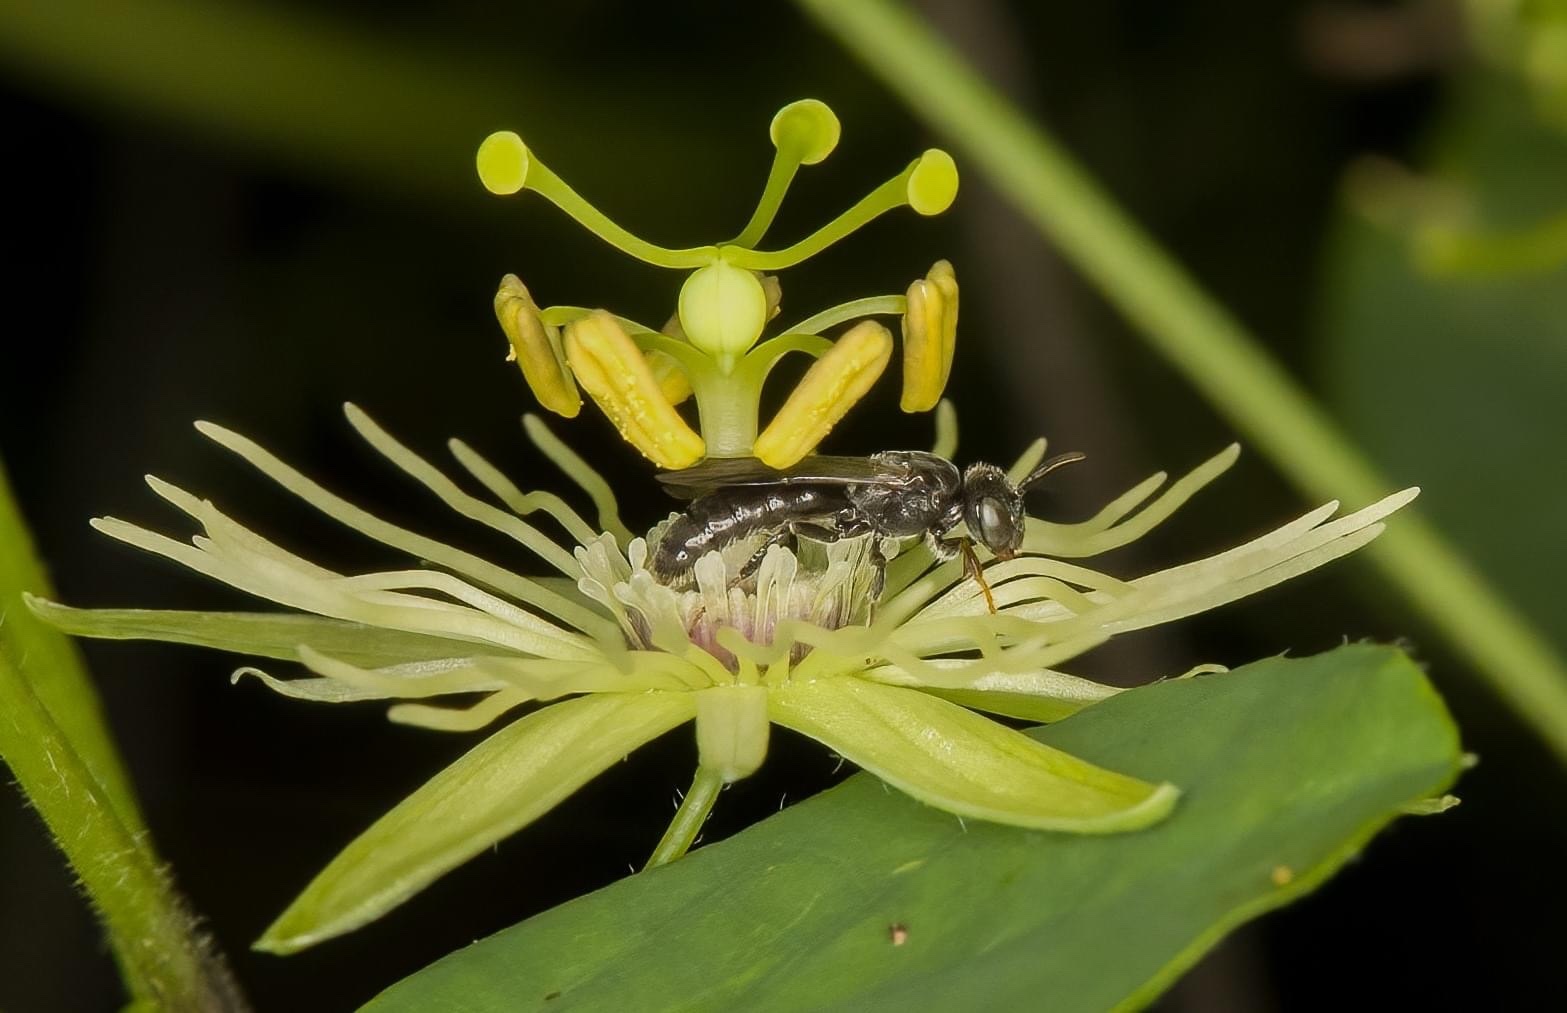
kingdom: Animalia
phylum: Arthropoda
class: Insecta
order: Hymenoptera
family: Andrenidae
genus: Protandrena
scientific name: Protandrena
